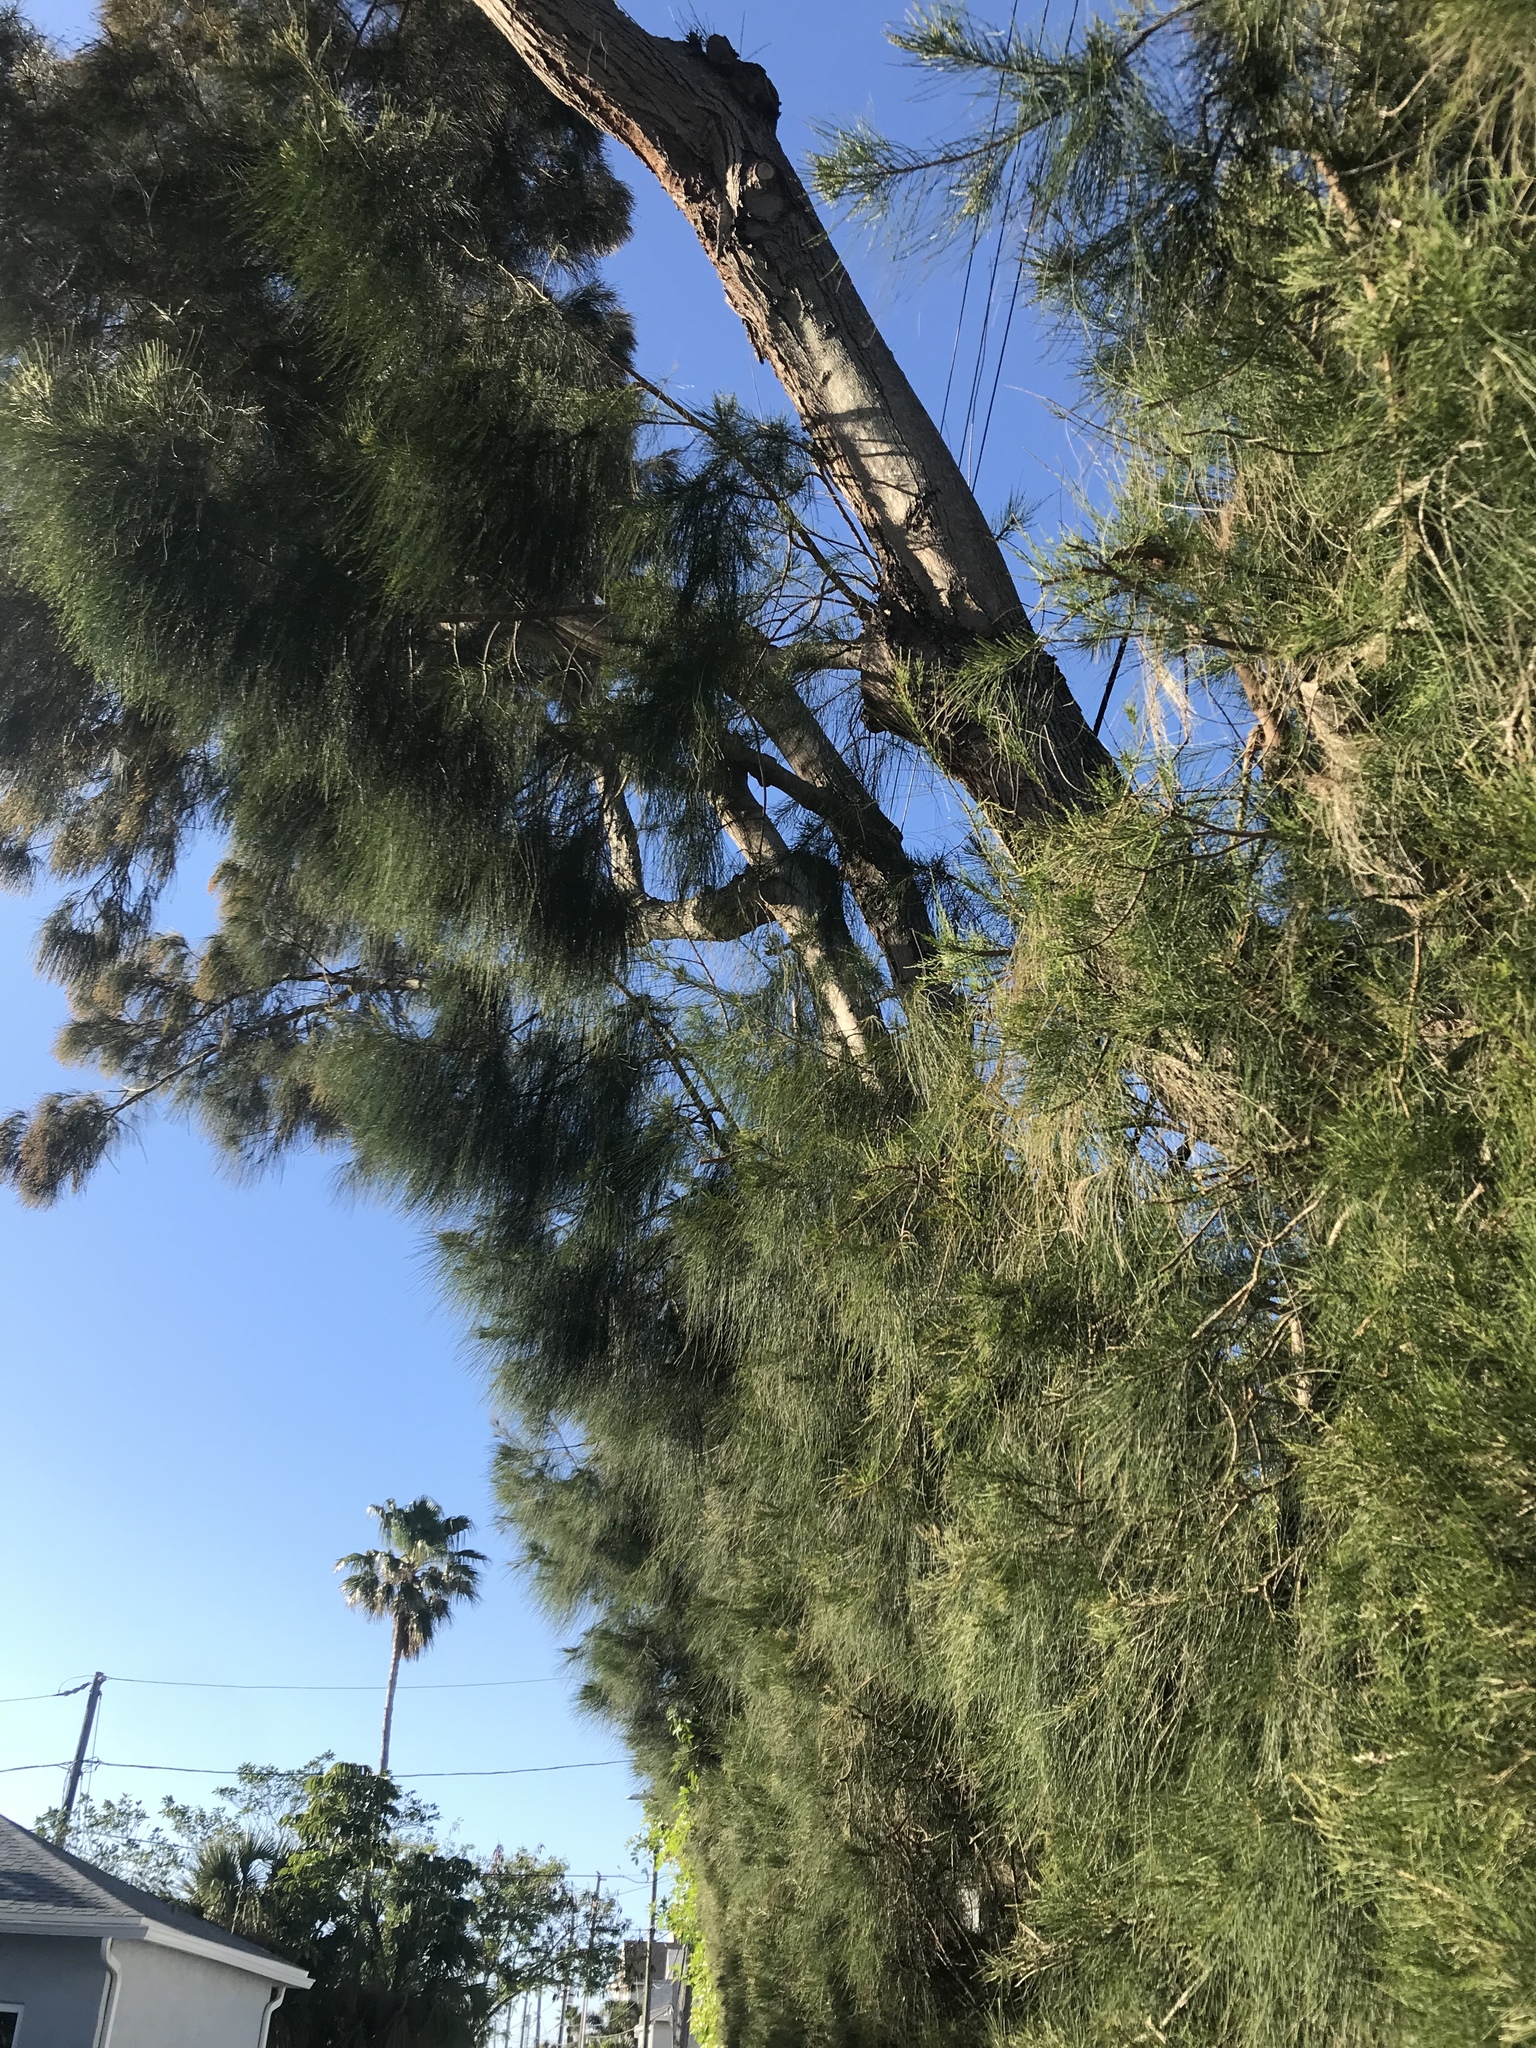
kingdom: Plantae
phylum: Tracheophyta
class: Magnoliopsida
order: Fagales
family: Casuarinaceae
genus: Casuarina
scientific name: Casuarina equisetifolia
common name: Beach sheoak
